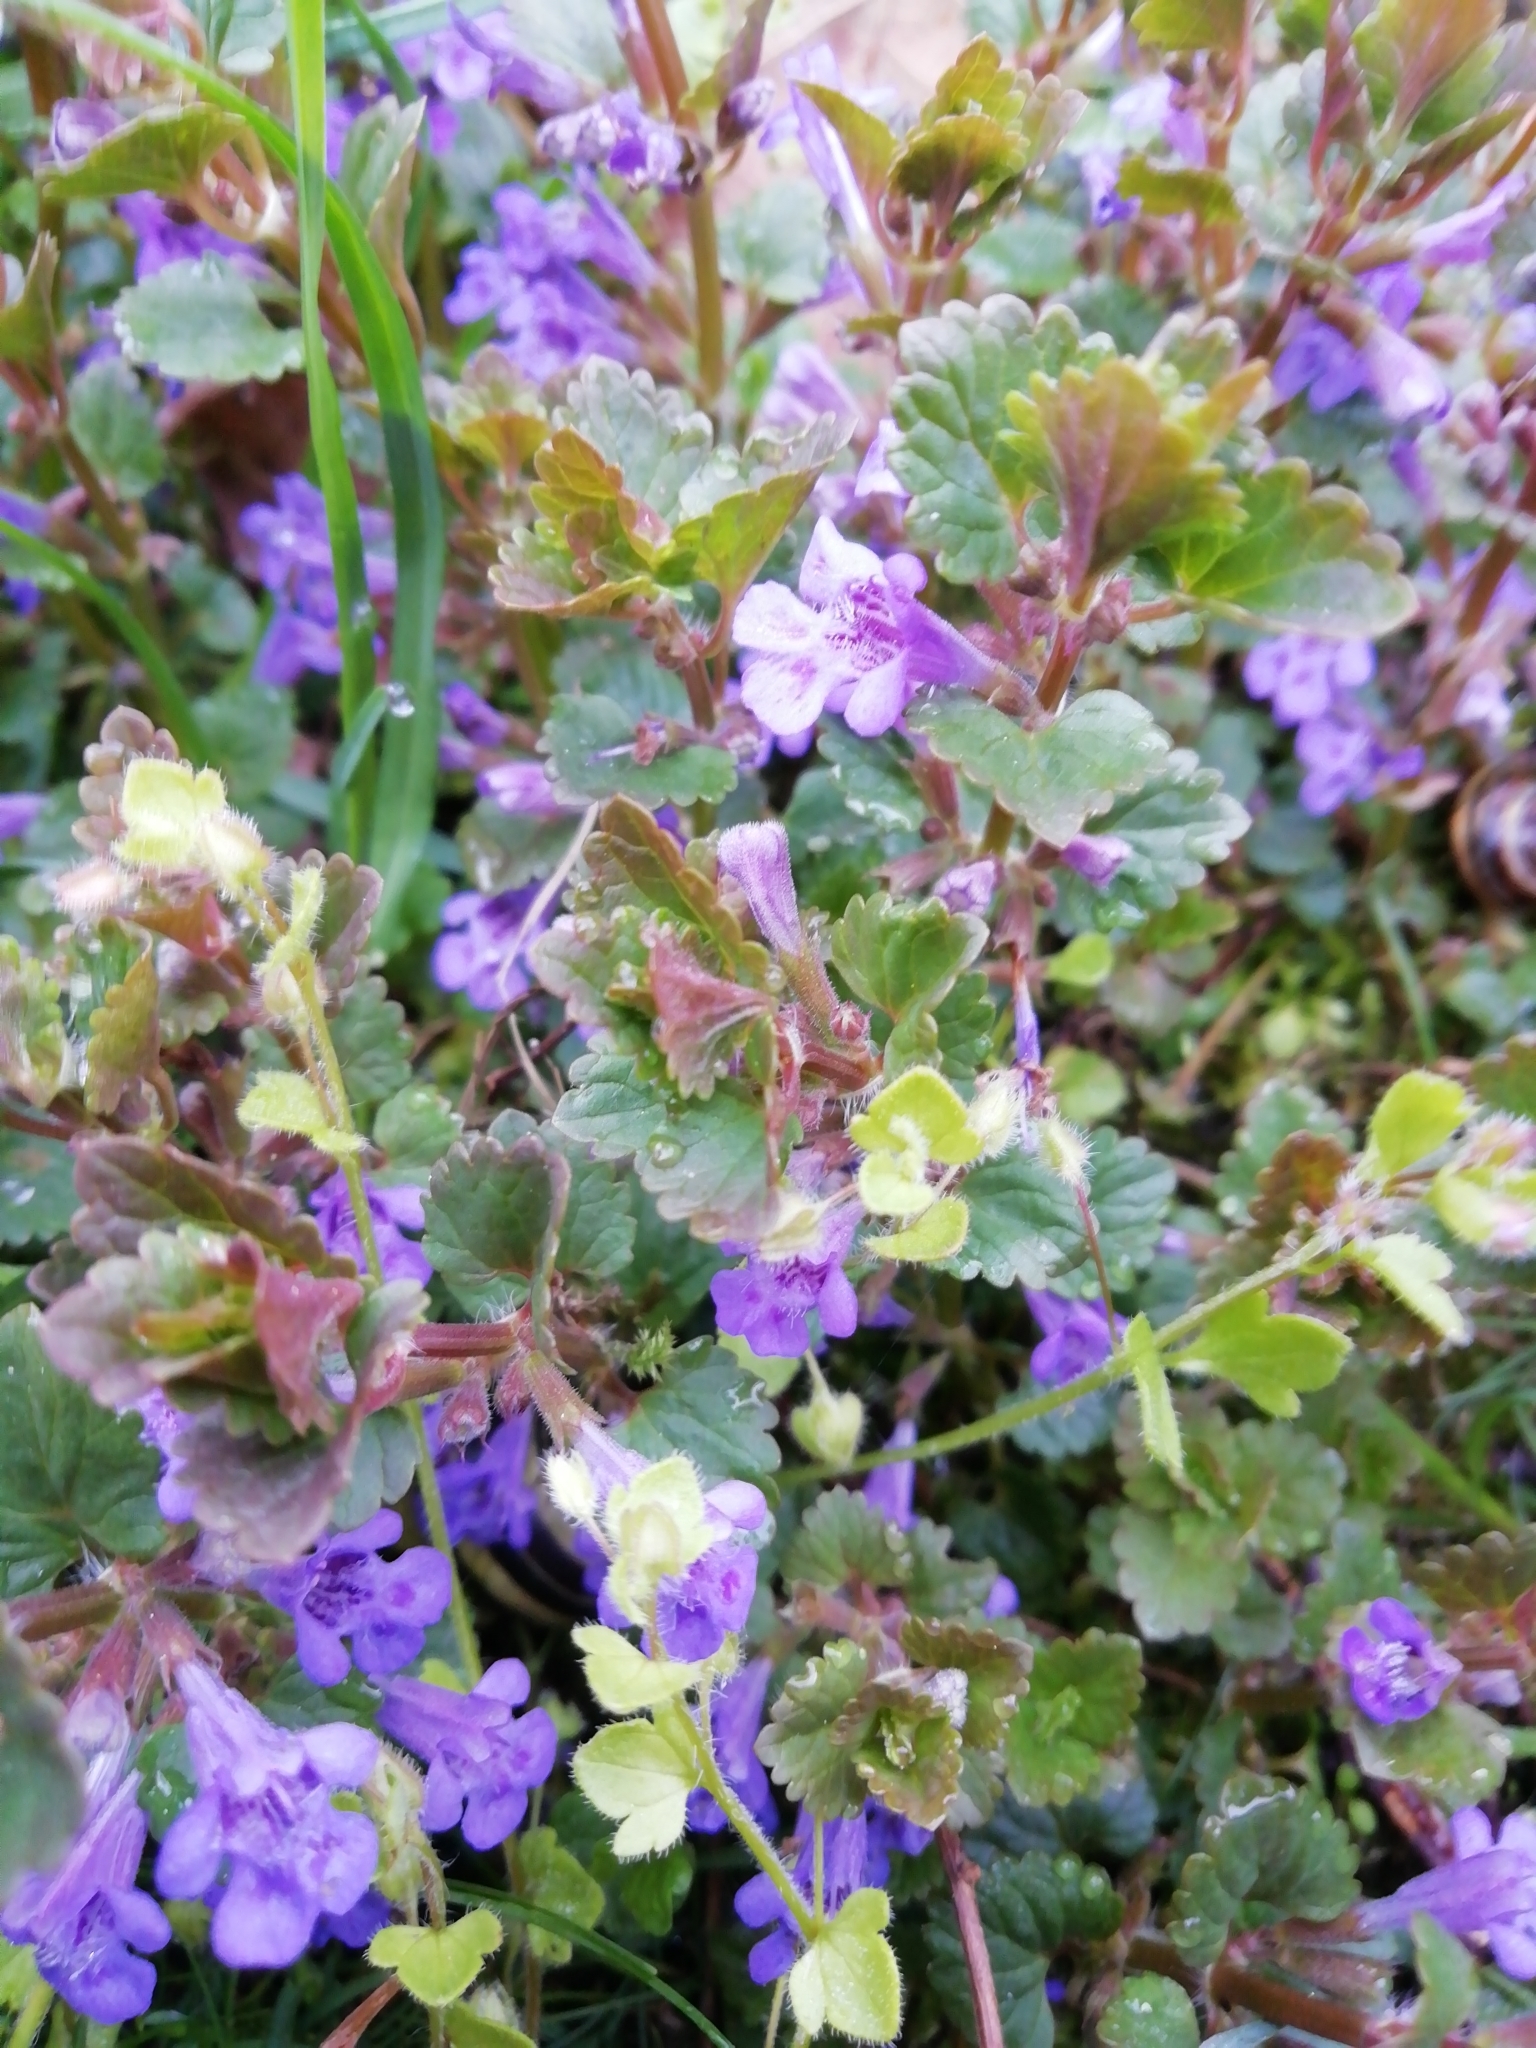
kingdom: Plantae
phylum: Tracheophyta
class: Magnoliopsida
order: Lamiales
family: Lamiaceae
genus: Glechoma
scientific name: Glechoma hederacea
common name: Ground ivy
